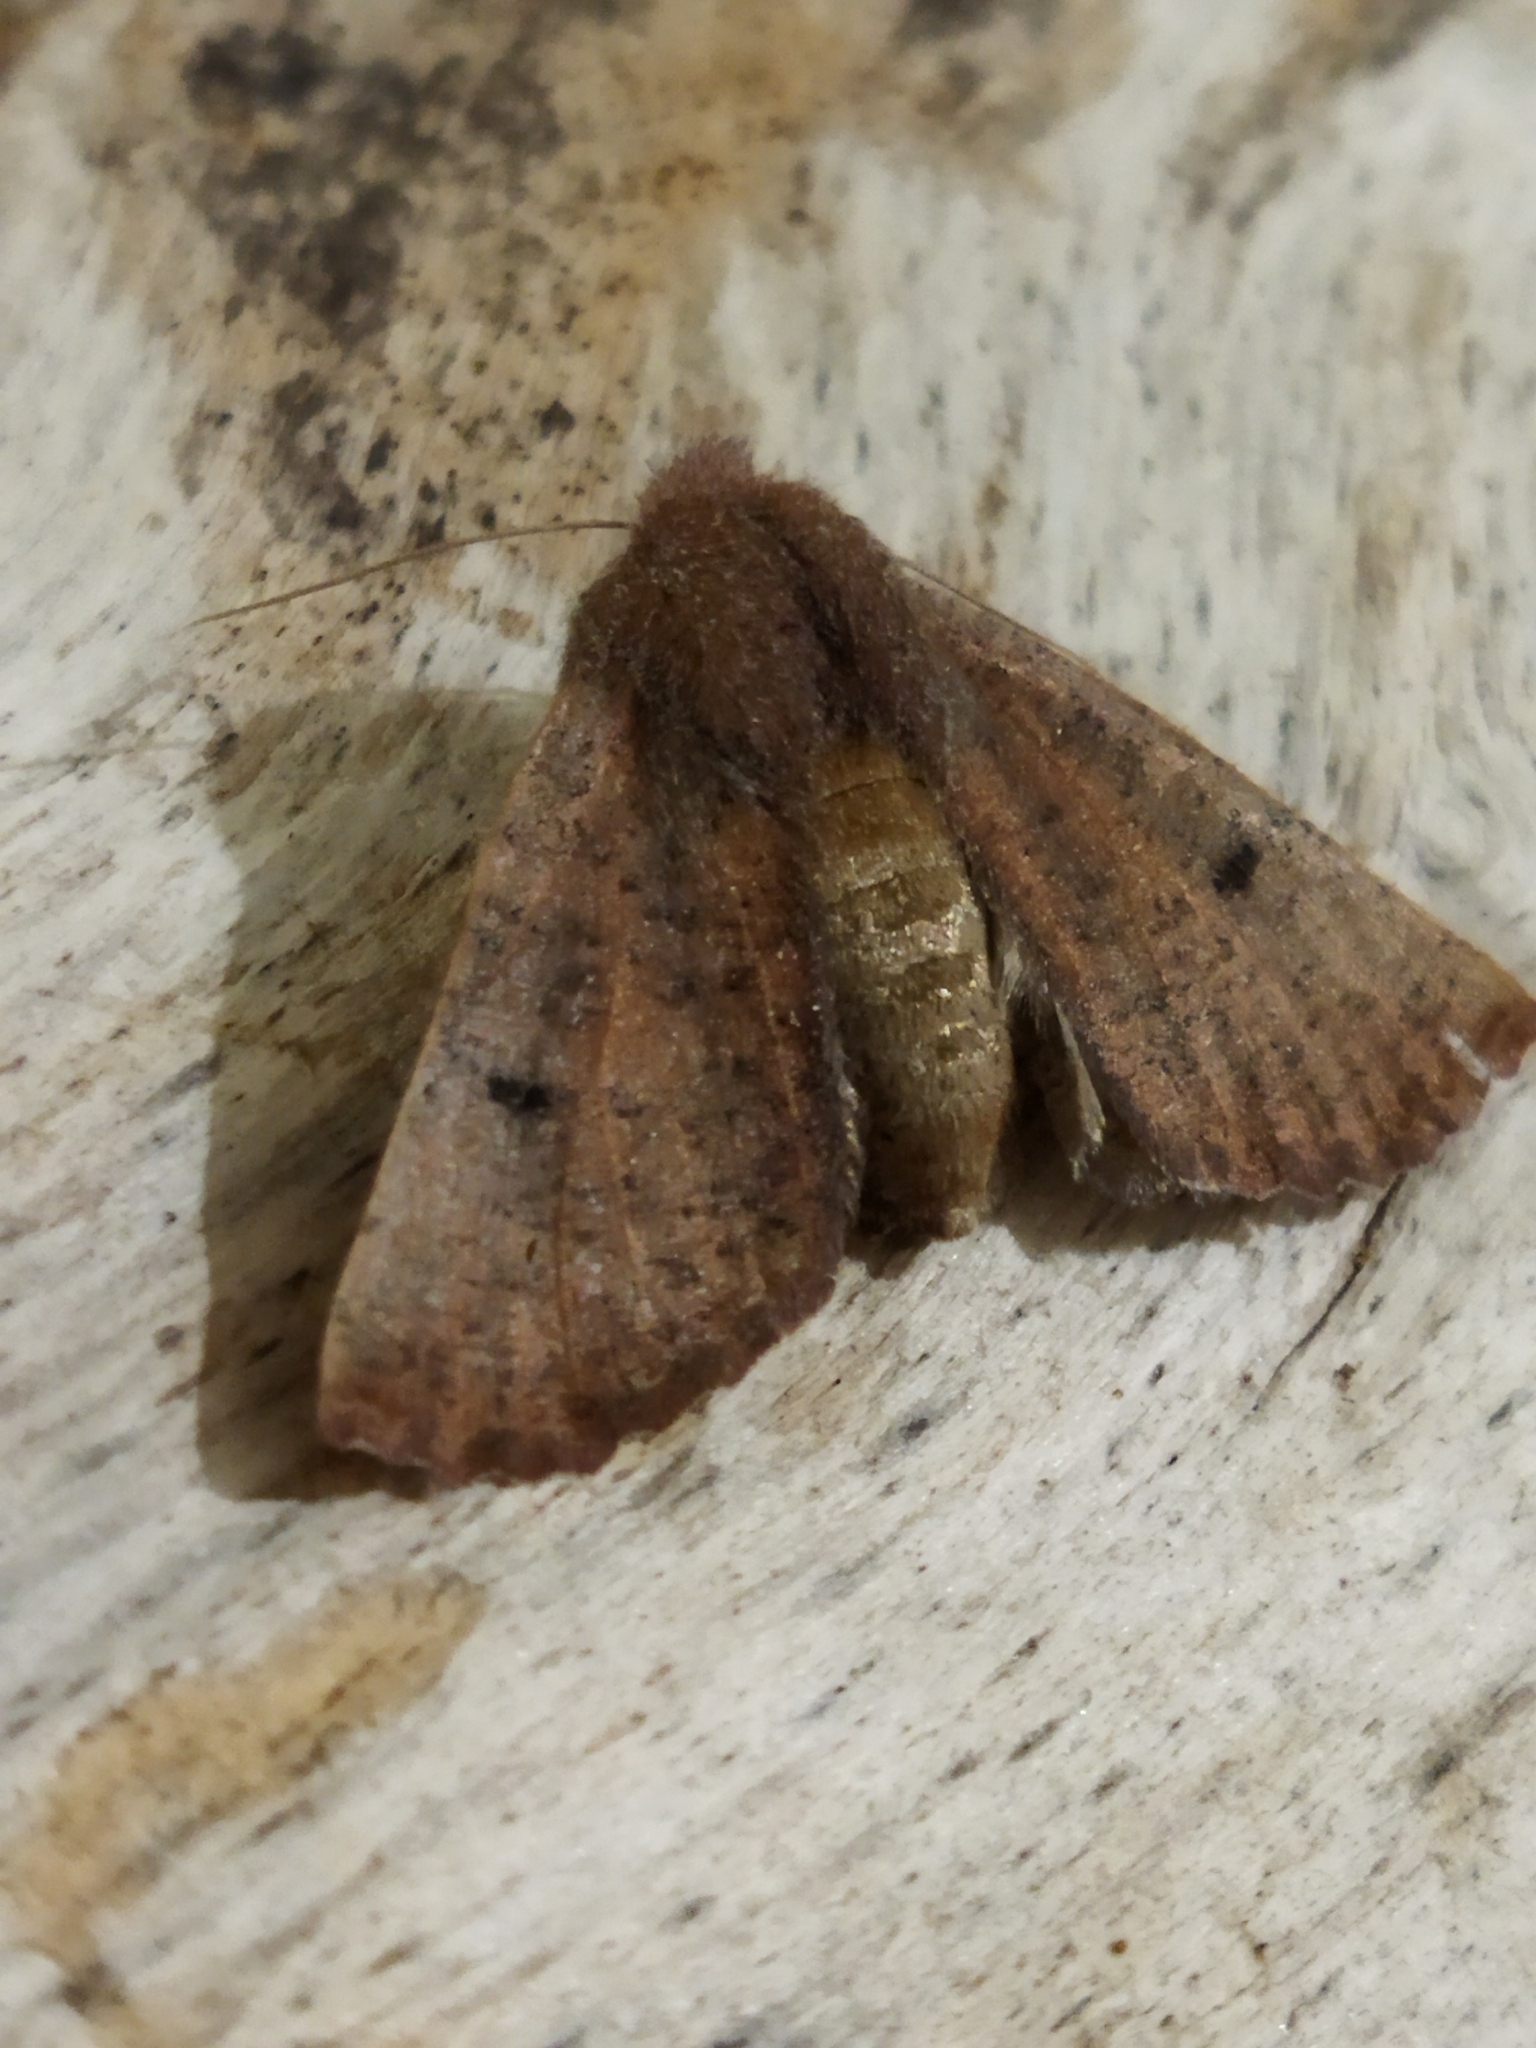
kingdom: Animalia
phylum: Arthropoda
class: Insecta
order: Lepidoptera
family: Geometridae
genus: Dasycorsa
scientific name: Dasycorsa modesta
